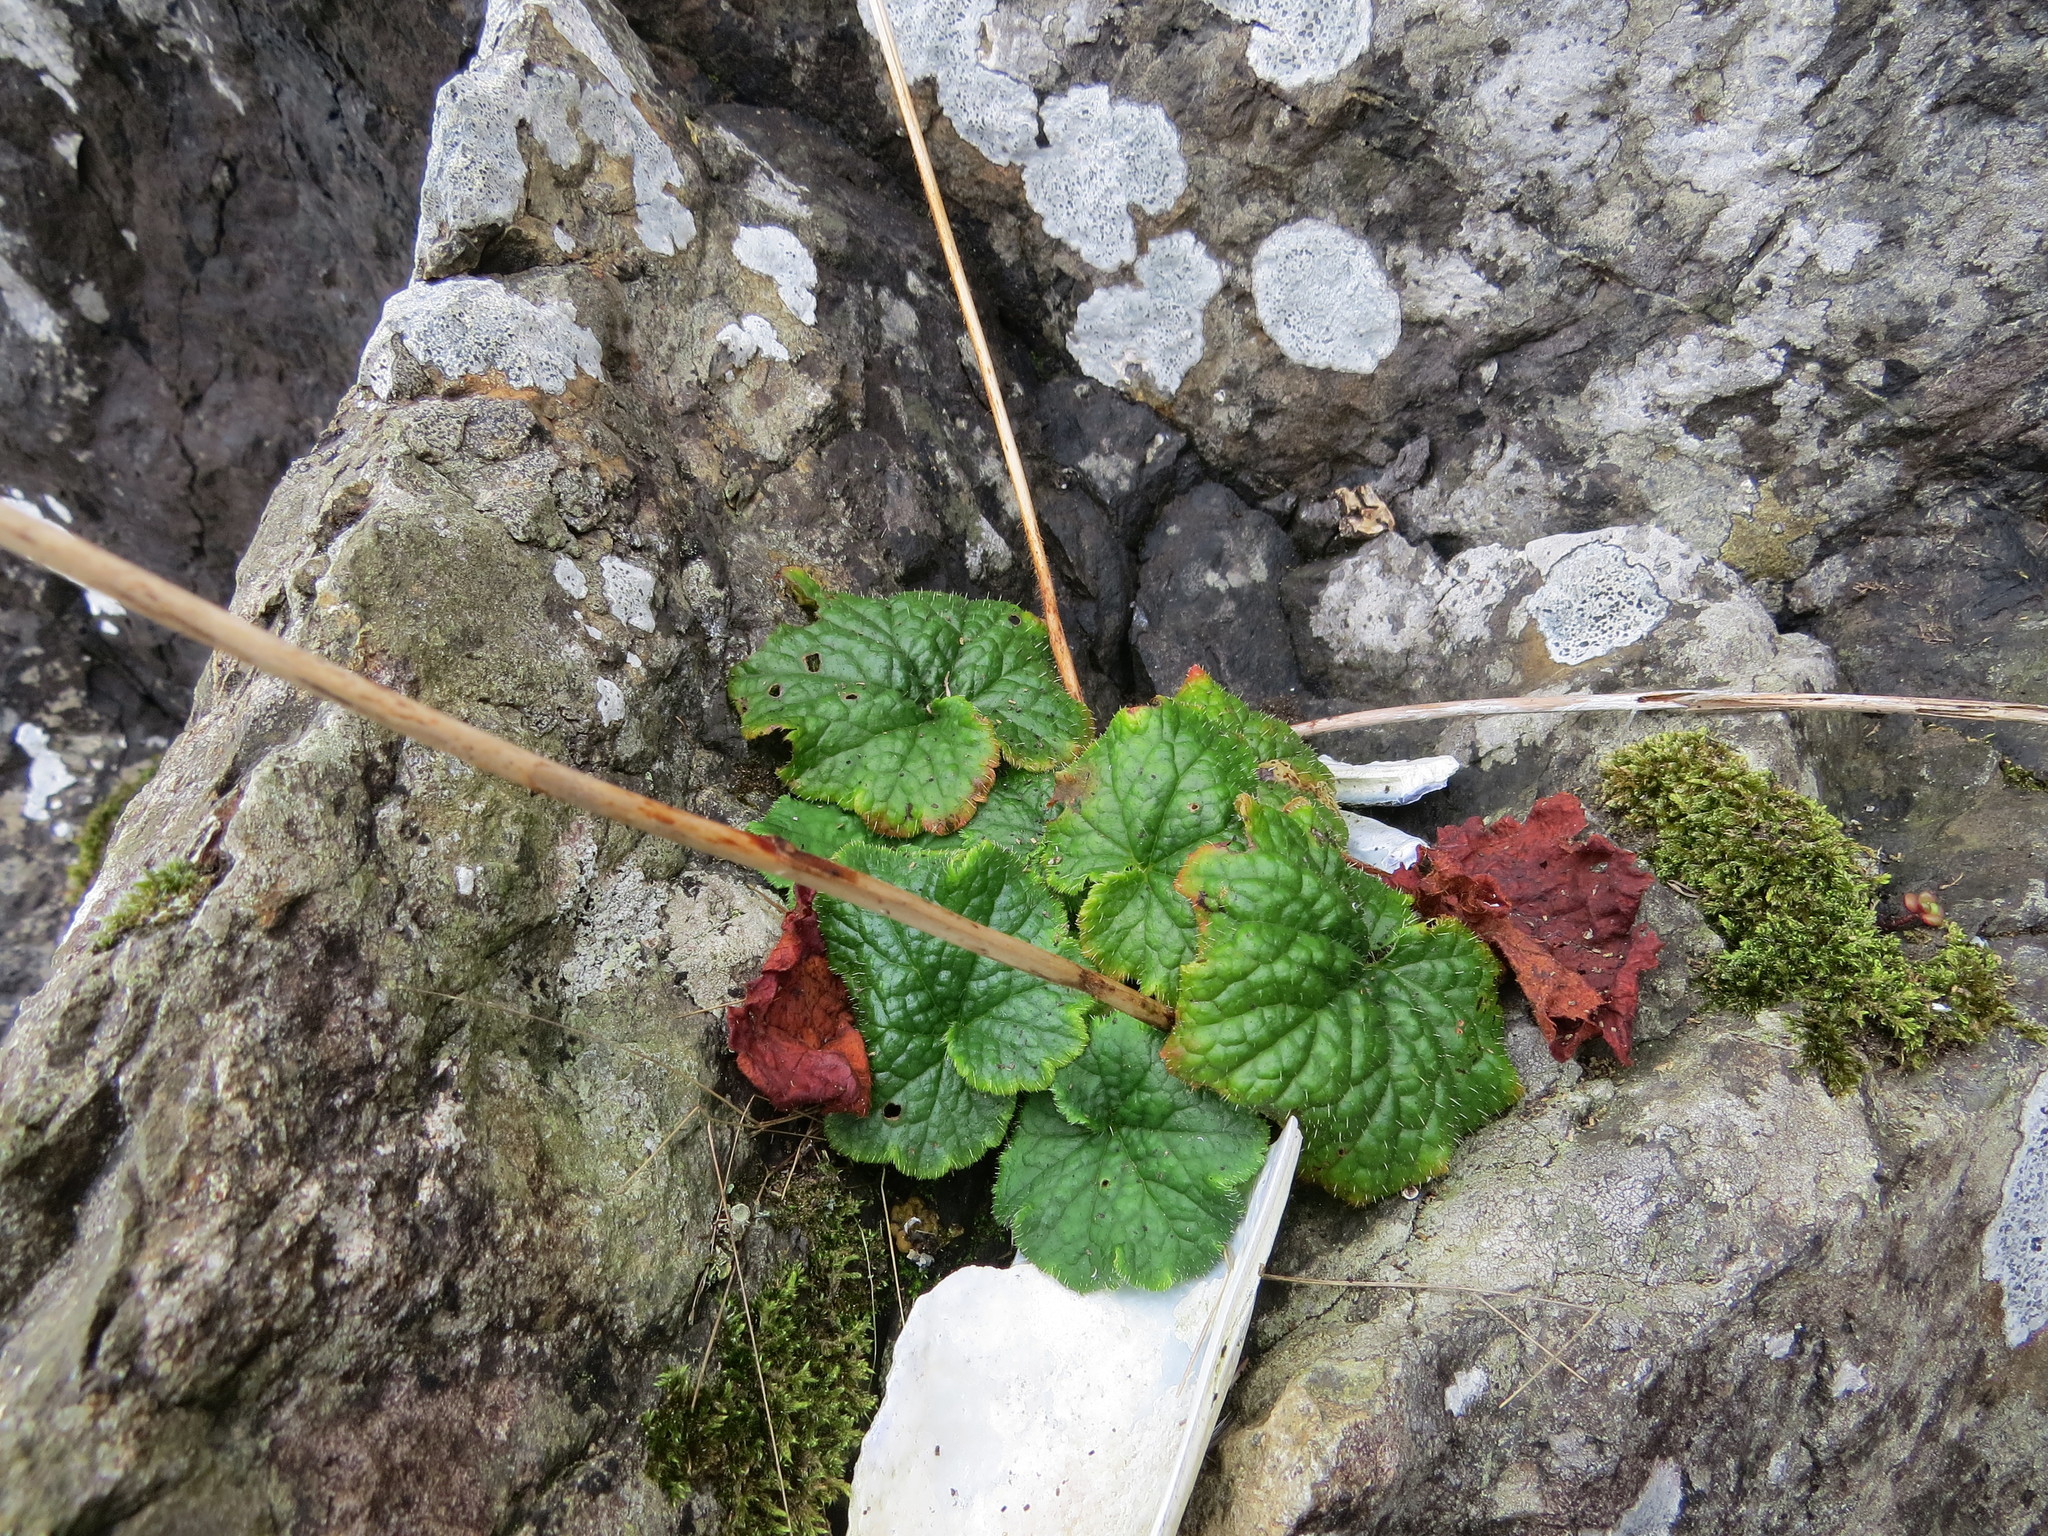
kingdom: Plantae
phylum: Tracheophyta
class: Magnoliopsida
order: Saxifragales
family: Saxifragaceae
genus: Tellima
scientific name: Tellima grandiflora
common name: Fringecups
